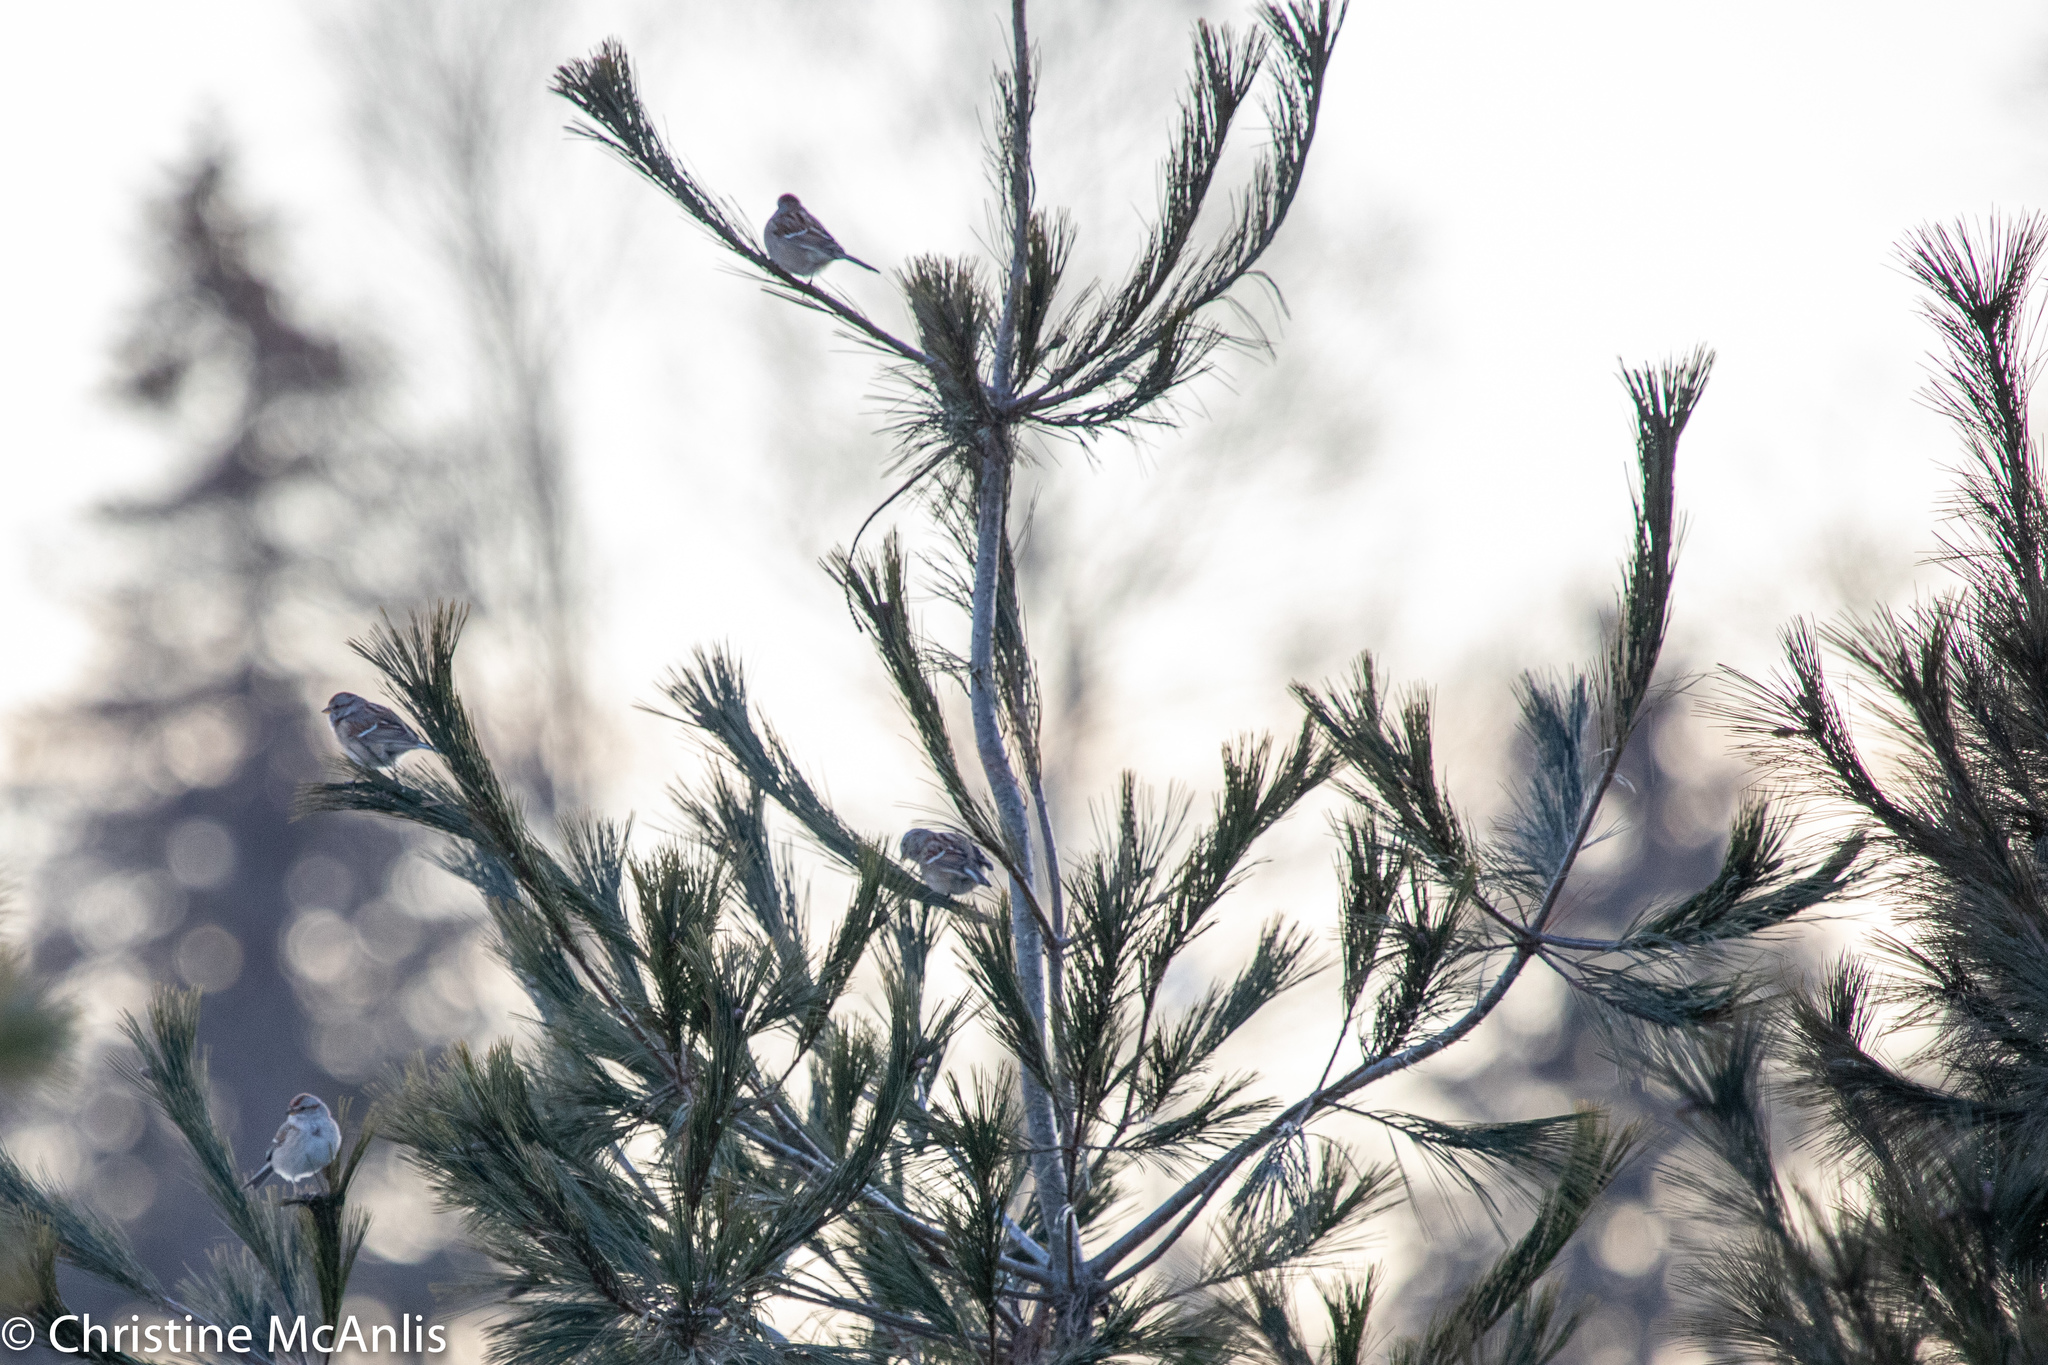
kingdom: Animalia
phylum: Chordata
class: Aves
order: Passeriformes
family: Passerellidae
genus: Spizelloides
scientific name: Spizelloides arborea
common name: American tree sparrow
